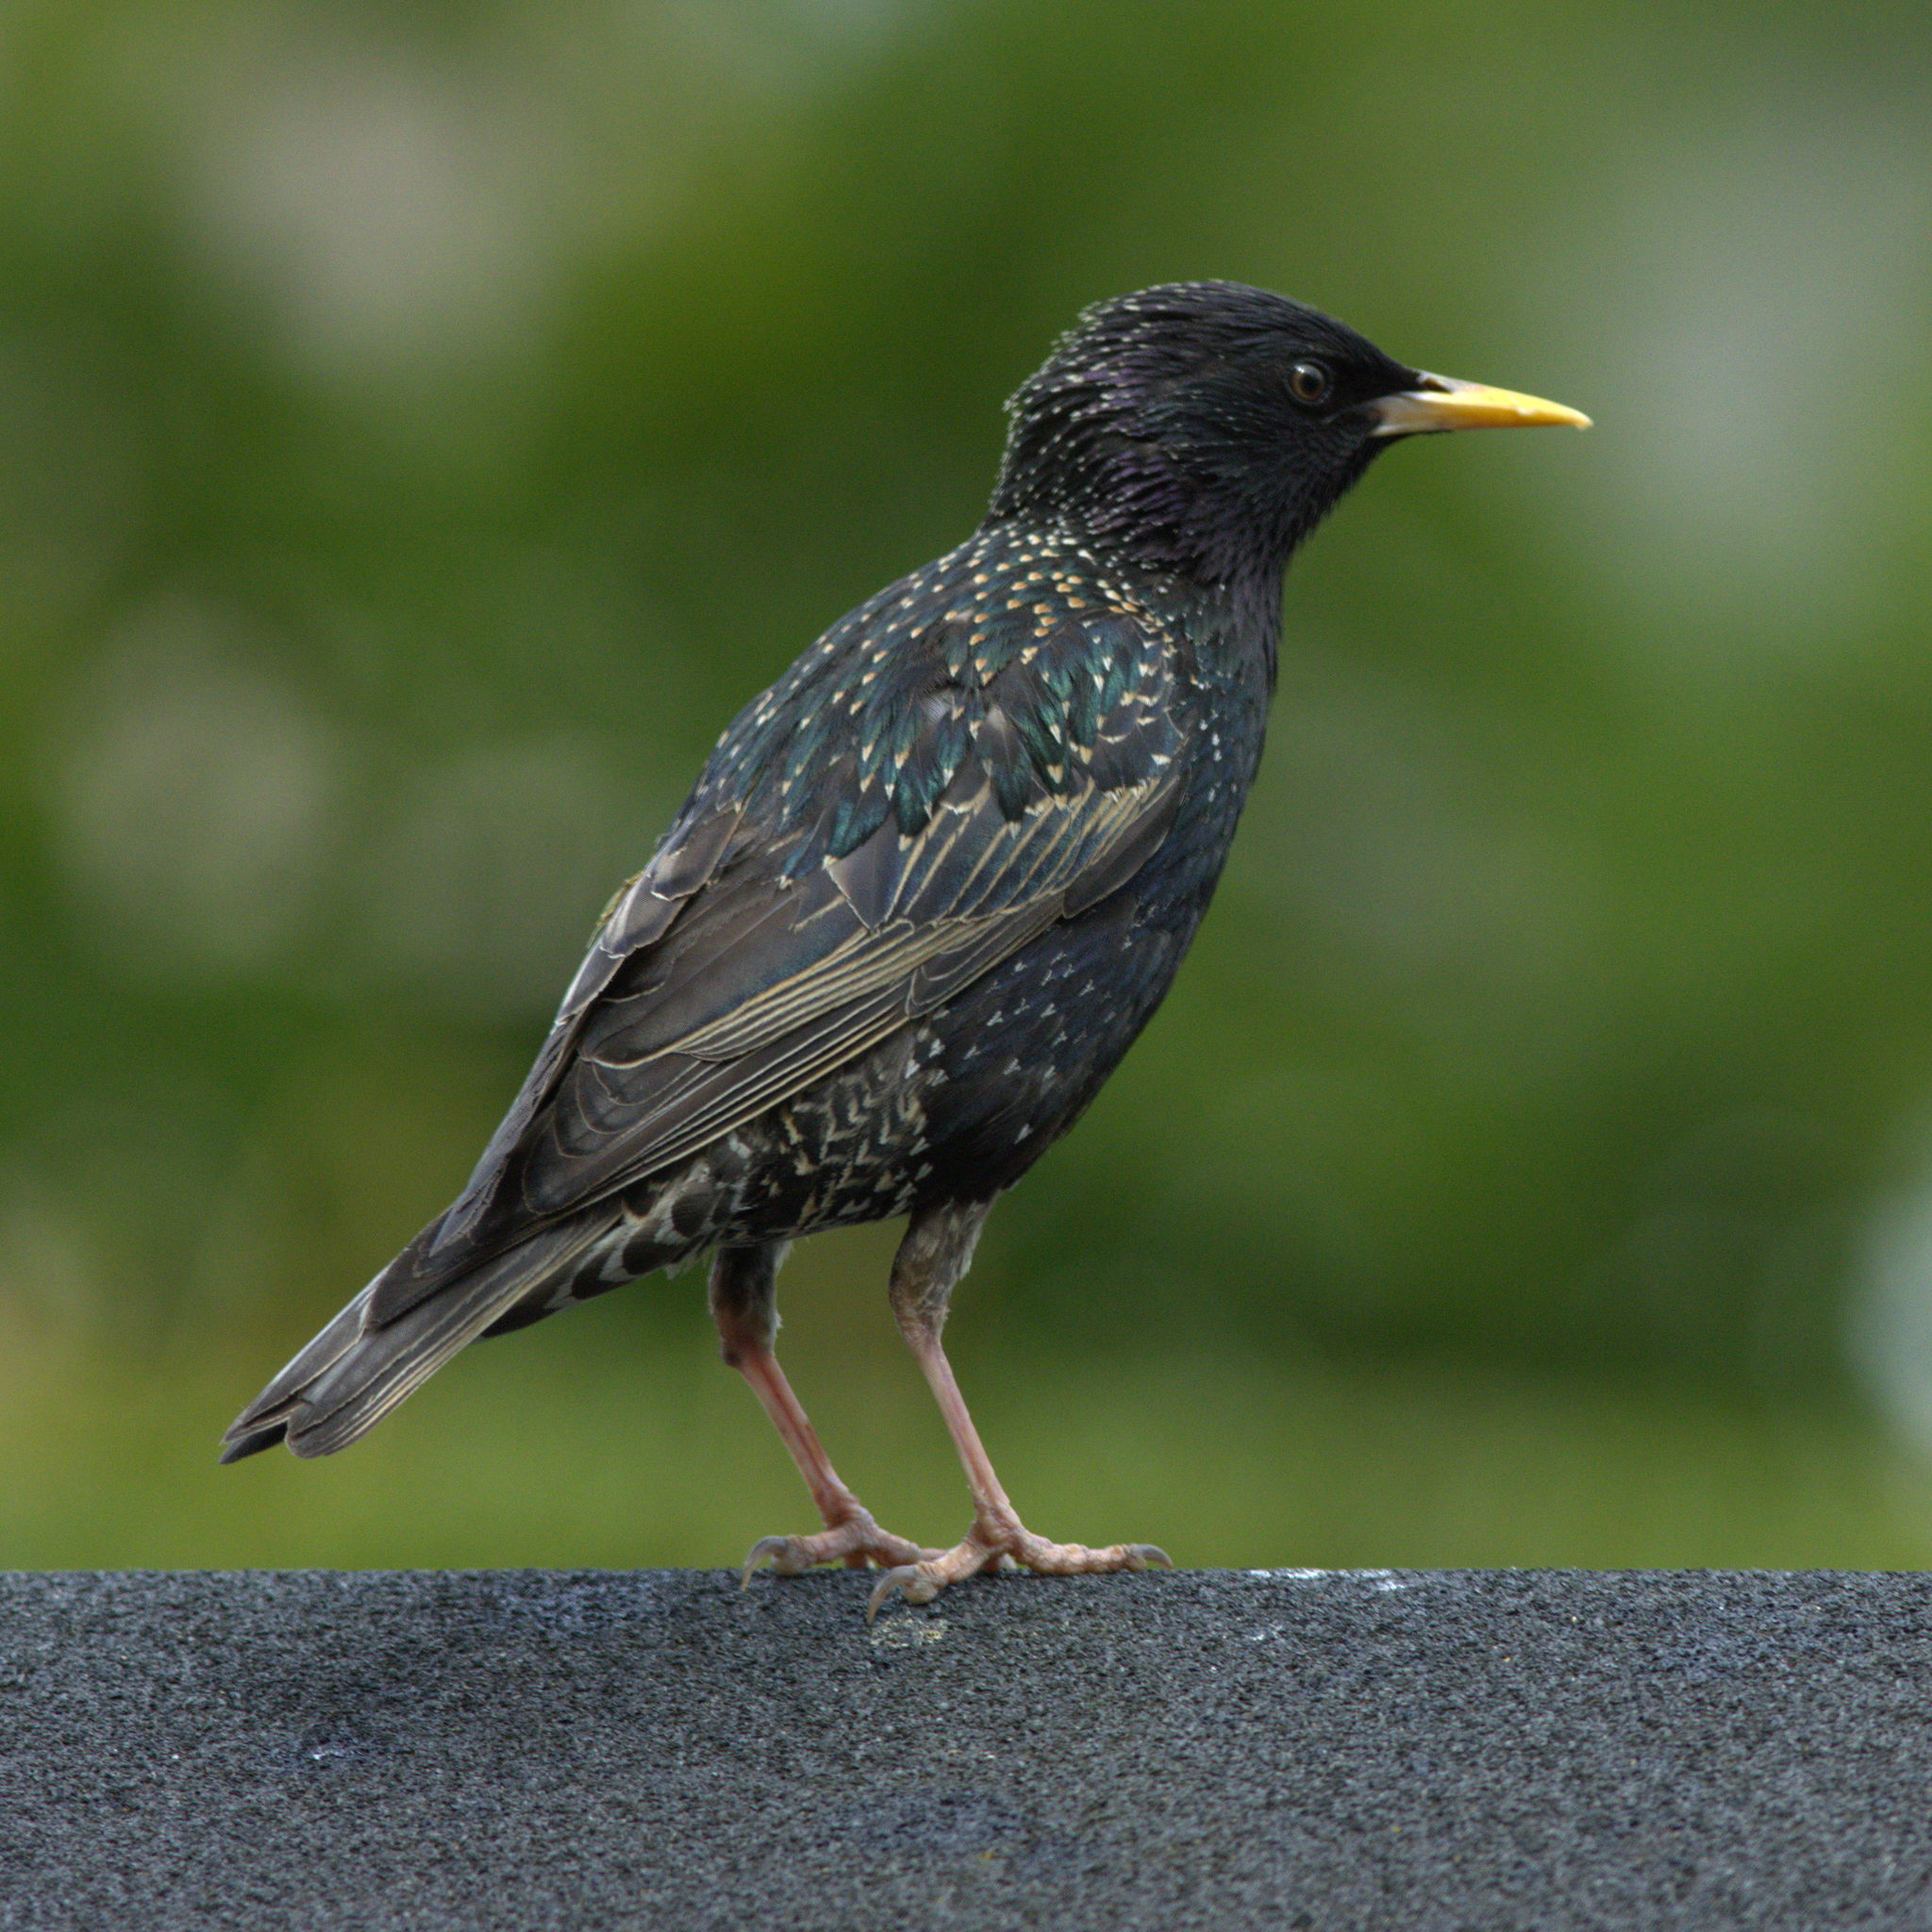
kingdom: Animalia
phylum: Chordata
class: Aves
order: Passeriformes
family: Sturnidae
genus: Sturnus
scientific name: Sturnus vulgaris
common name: Common starling
